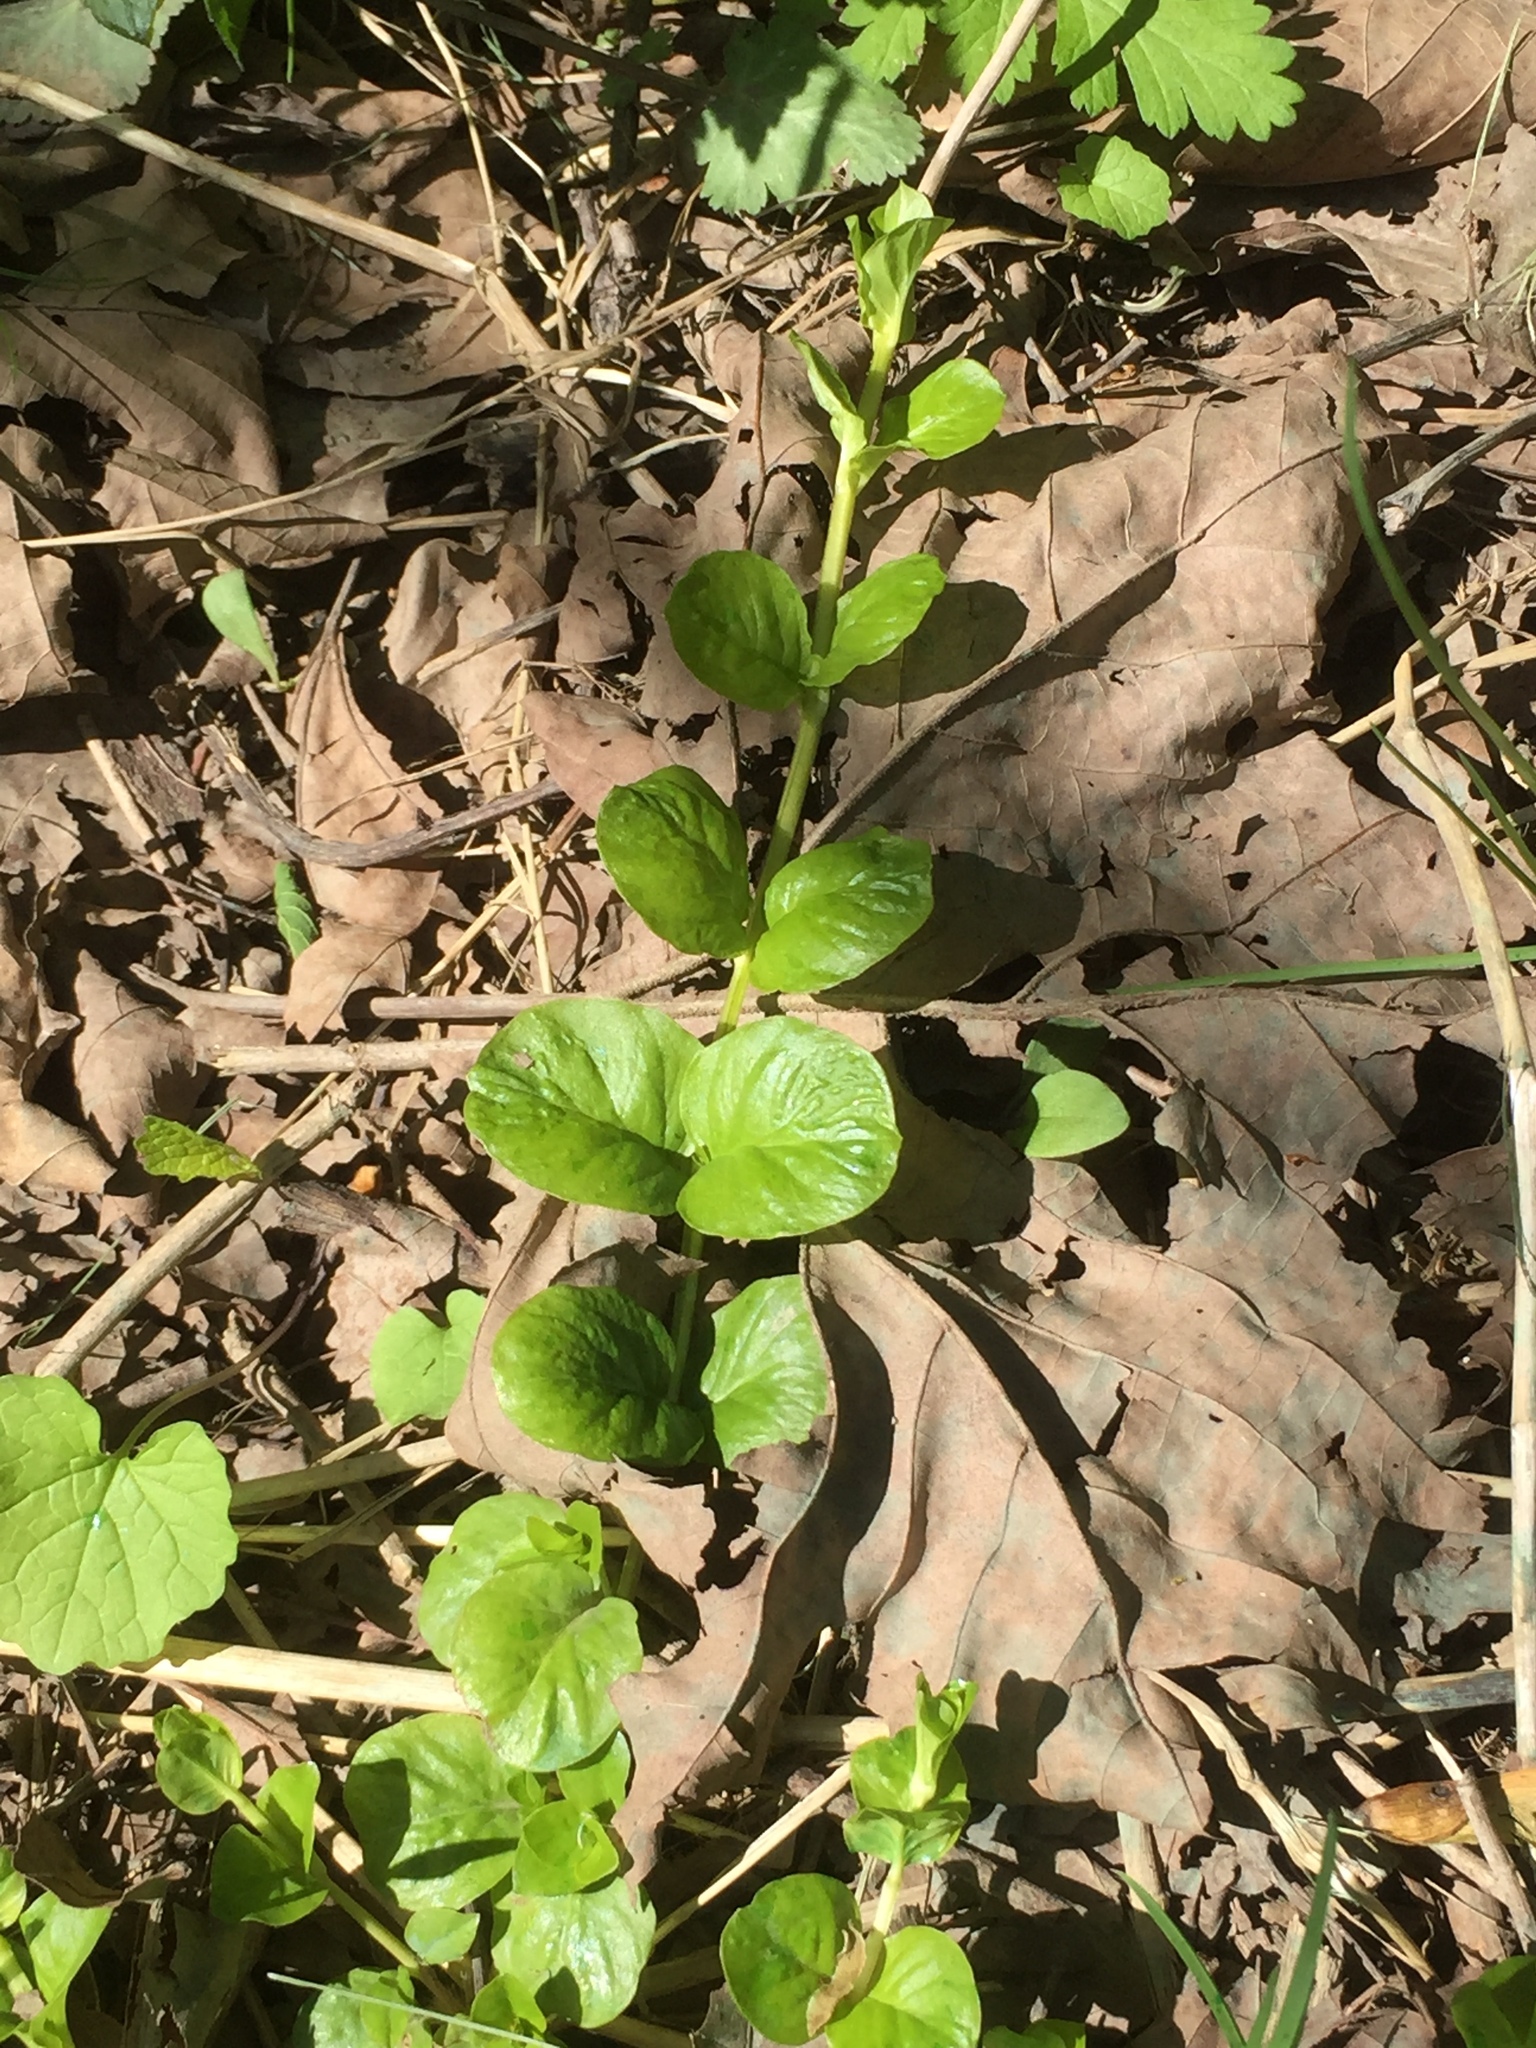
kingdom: Plantae
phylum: Tracheophyta
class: Magnoliopsida
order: Ericales
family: Primulaceae
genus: Lysimachia
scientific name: Lysimachia nummularia
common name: Moneywort
